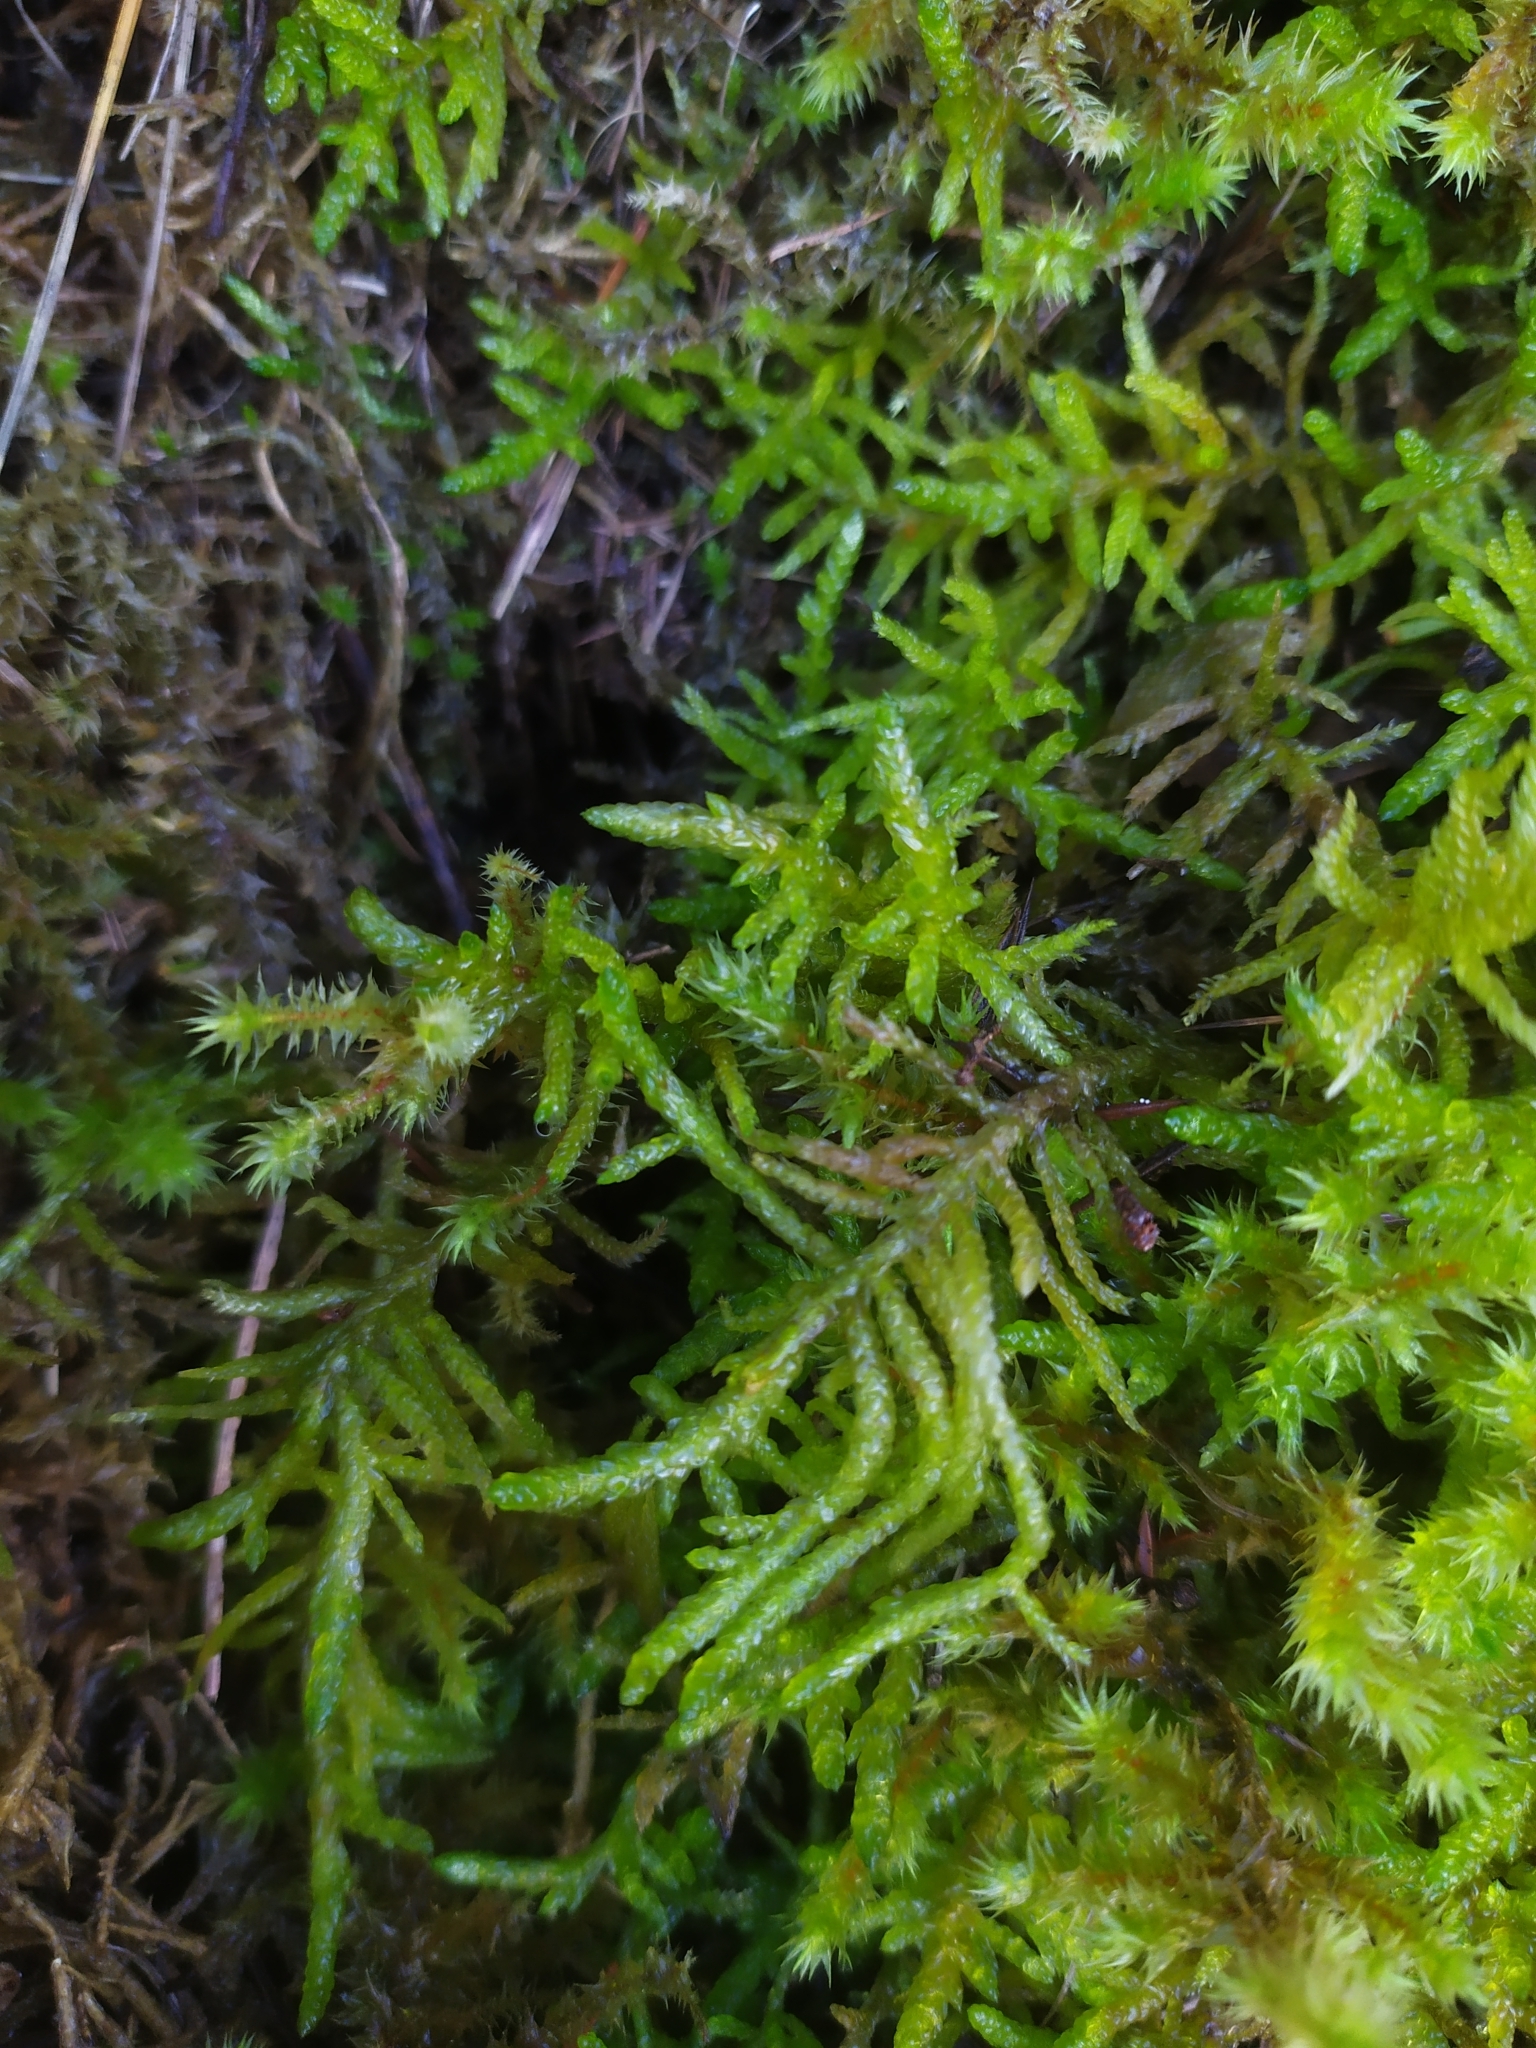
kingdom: Plantae
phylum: Bryophyta
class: Bryopsida
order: Hypnales
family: Brachytheciaceae
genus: Pseudoscleropodium
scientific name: Pseudoscleropodium purum
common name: Neat feather-moss
